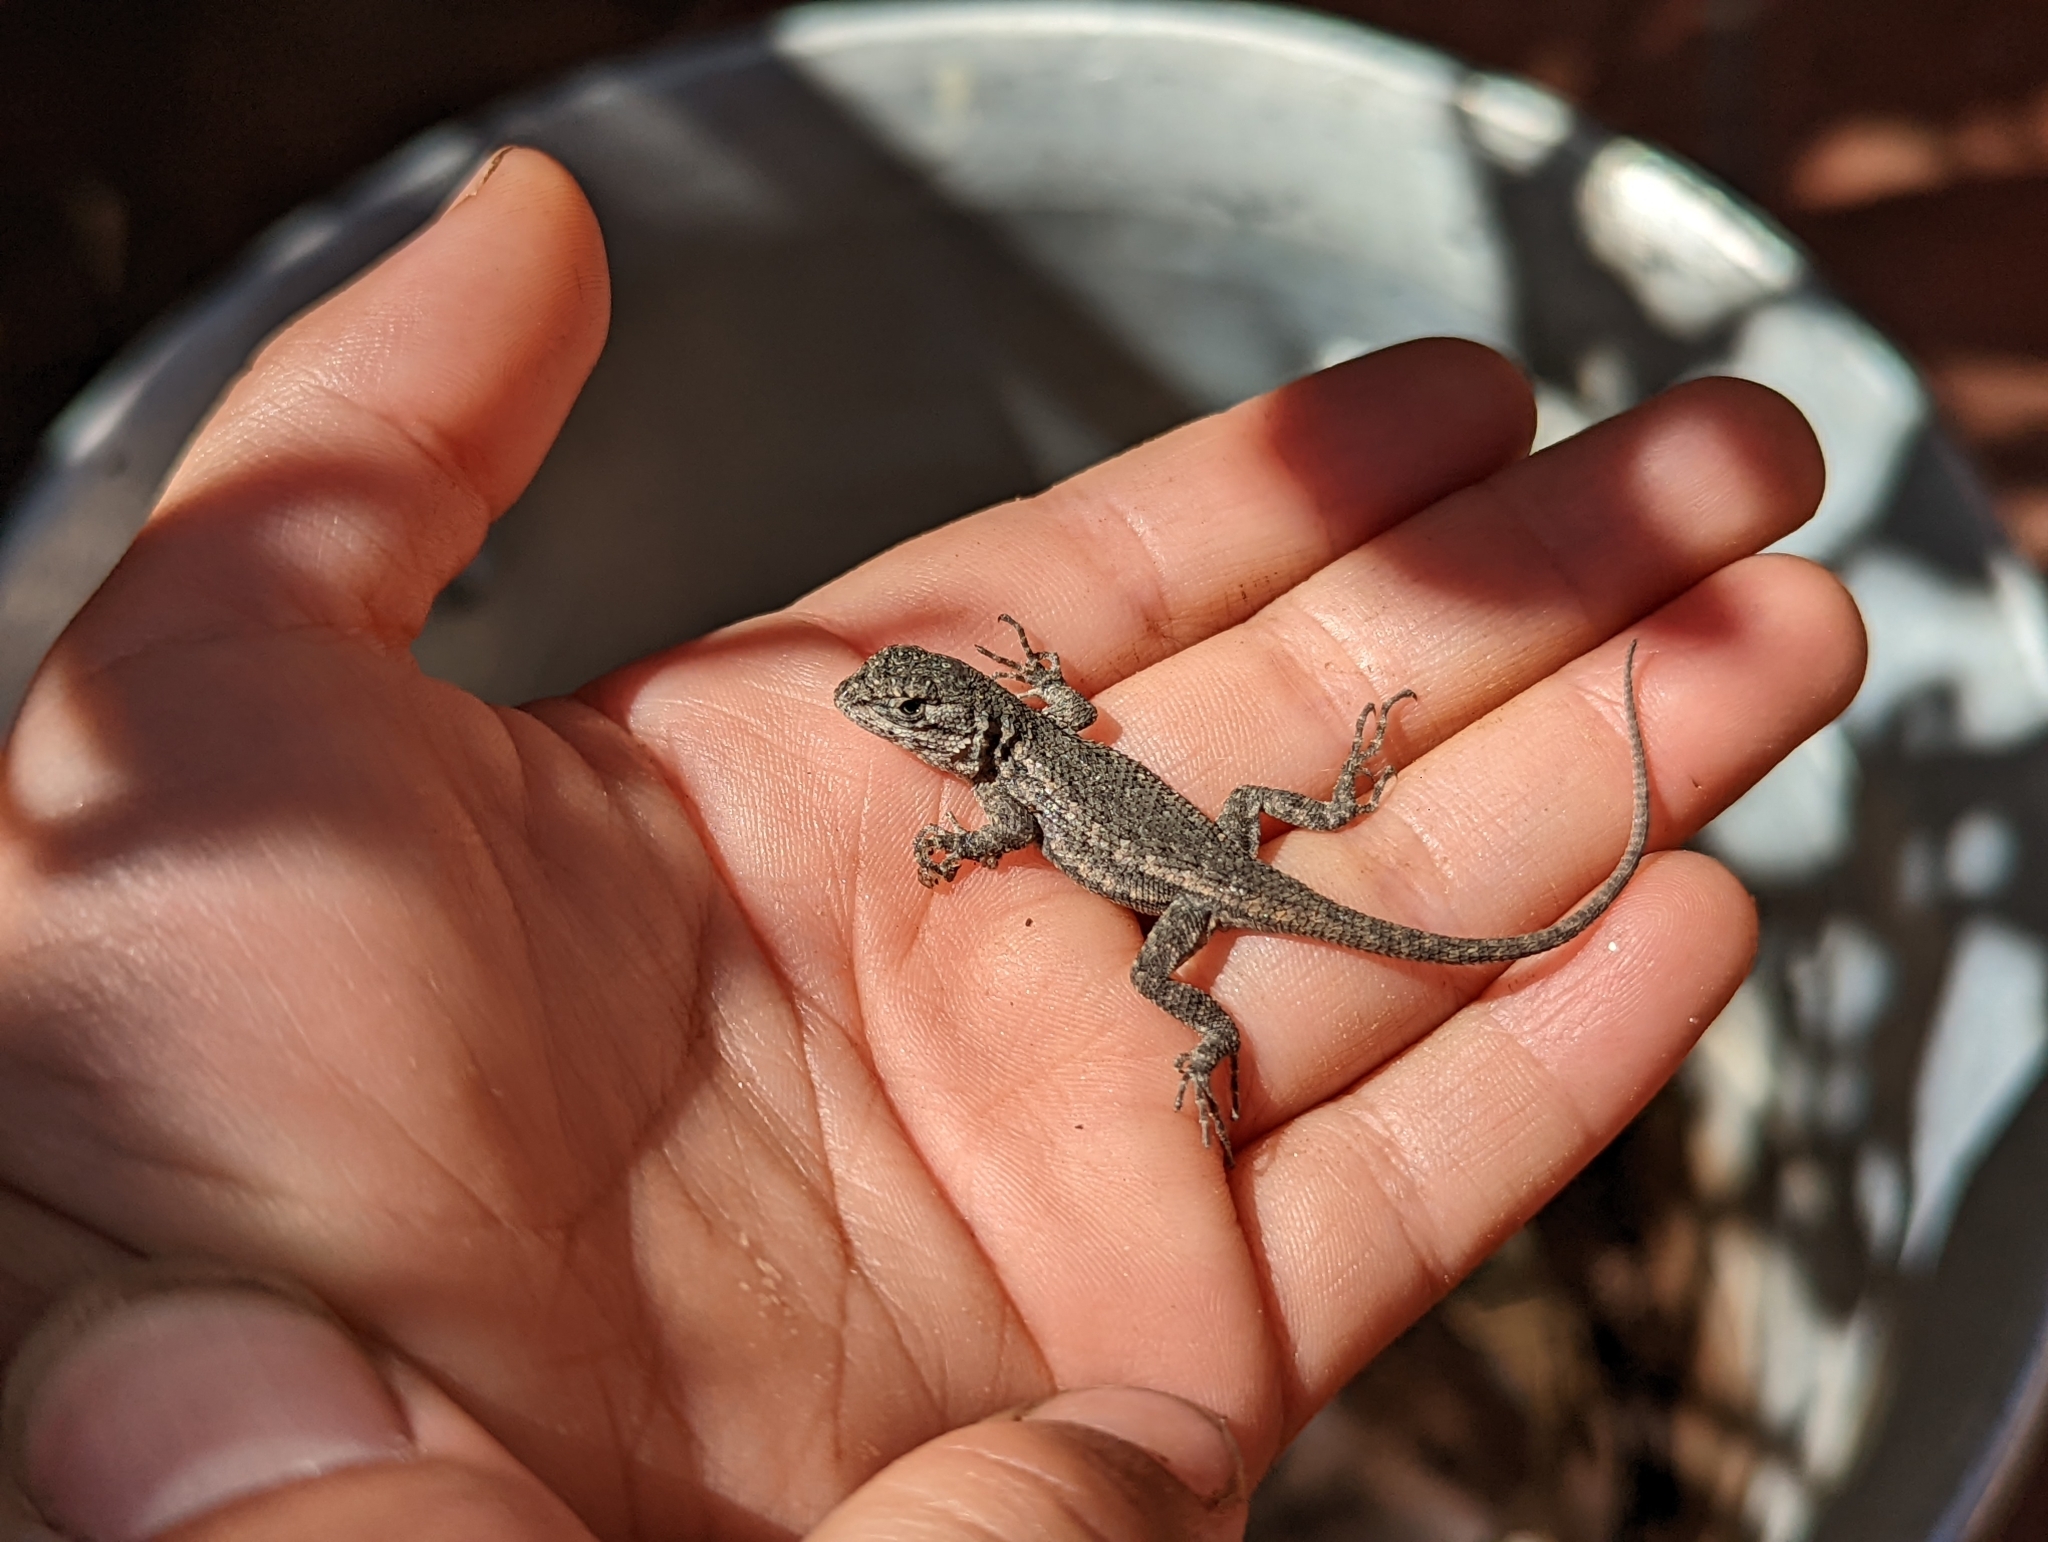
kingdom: Animalia
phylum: Chordata
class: Squamata
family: Phrynosomatidae
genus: Sceloporus
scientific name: Sceloporus occidentalis
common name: Western fence lizard
